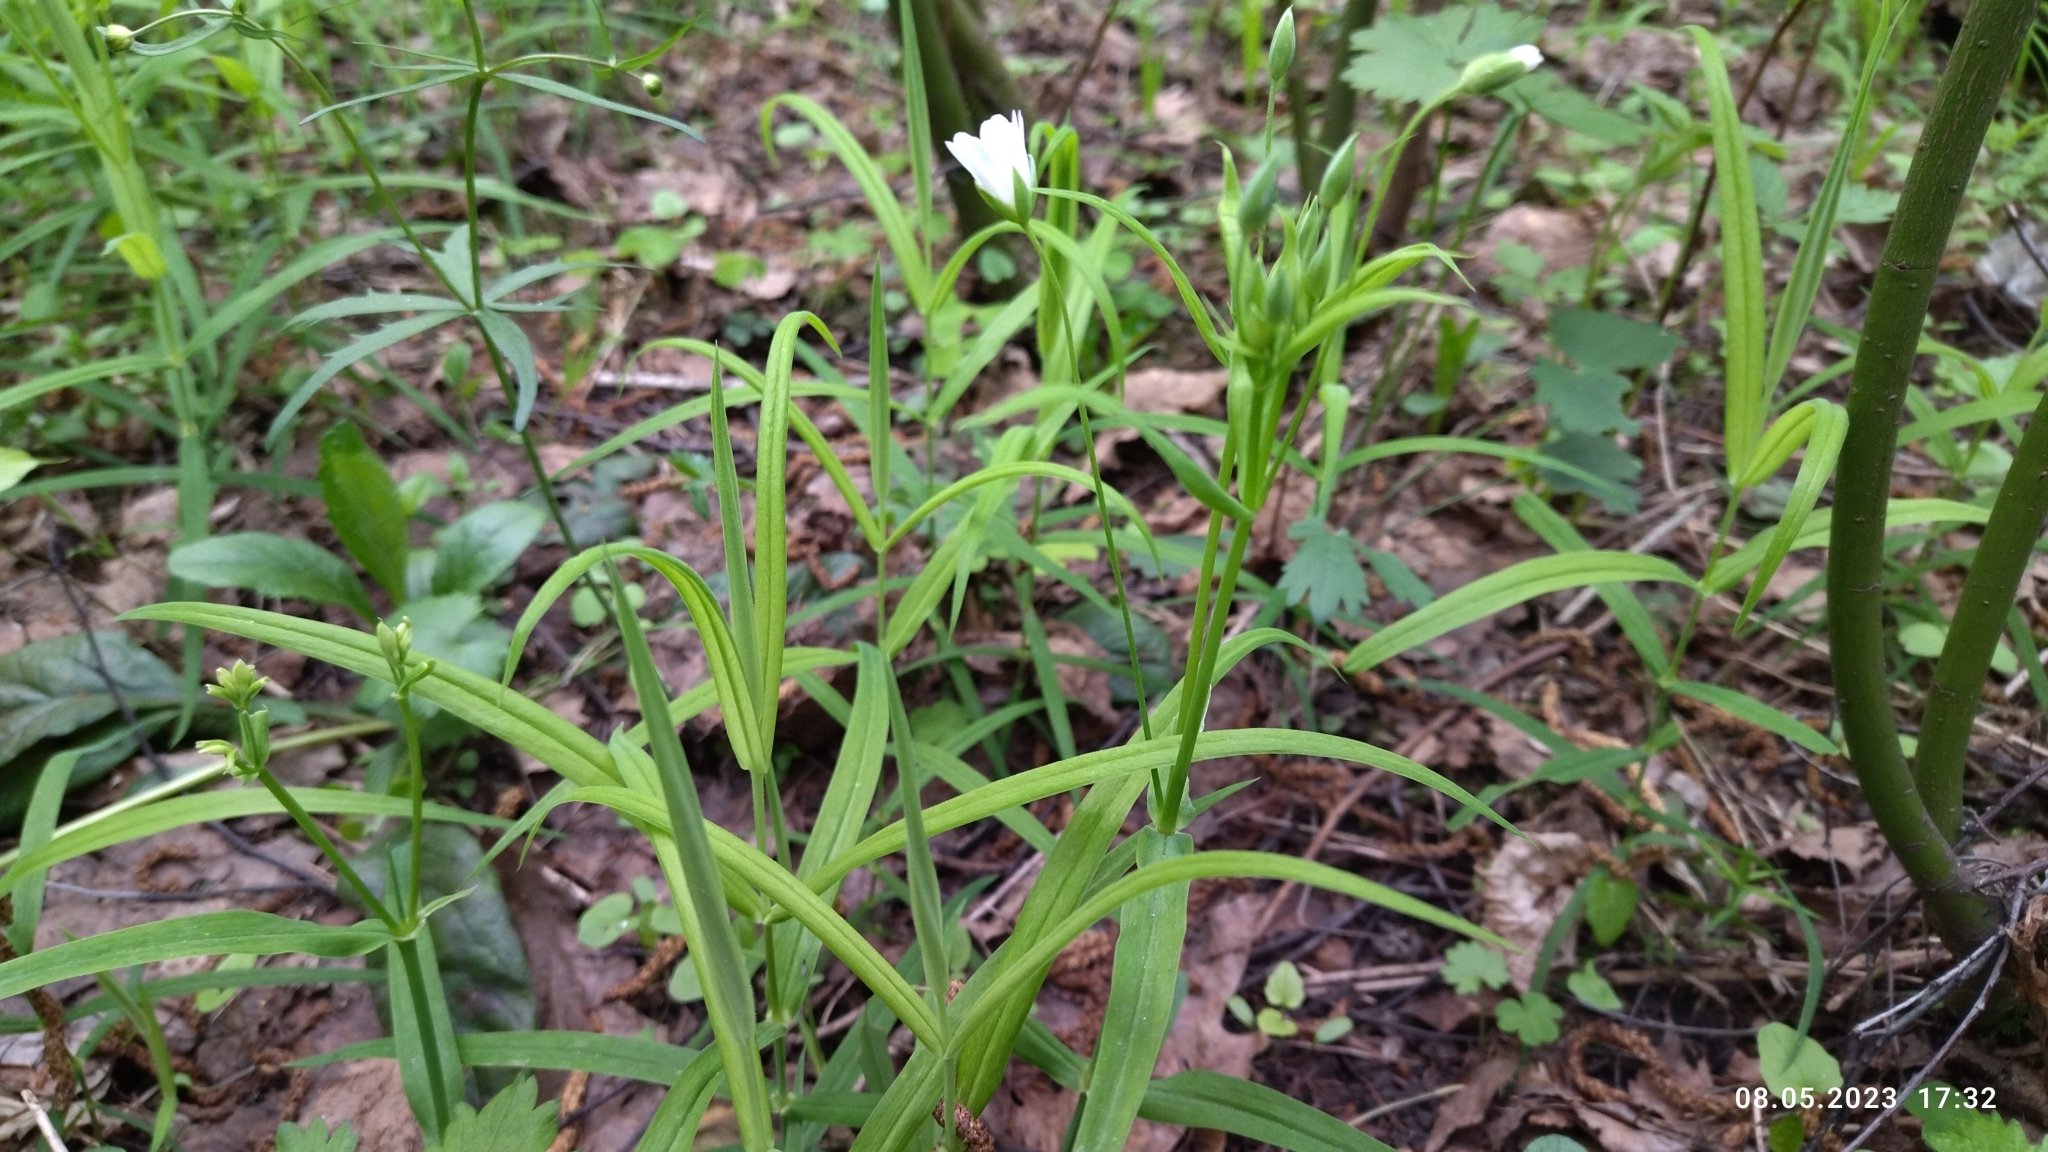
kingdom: Plantae
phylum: Tracheophyta
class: Magnoliopsida
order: Caryophyllales
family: Caryophyllaceae
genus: Rabelera
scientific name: Rabelera holostea
